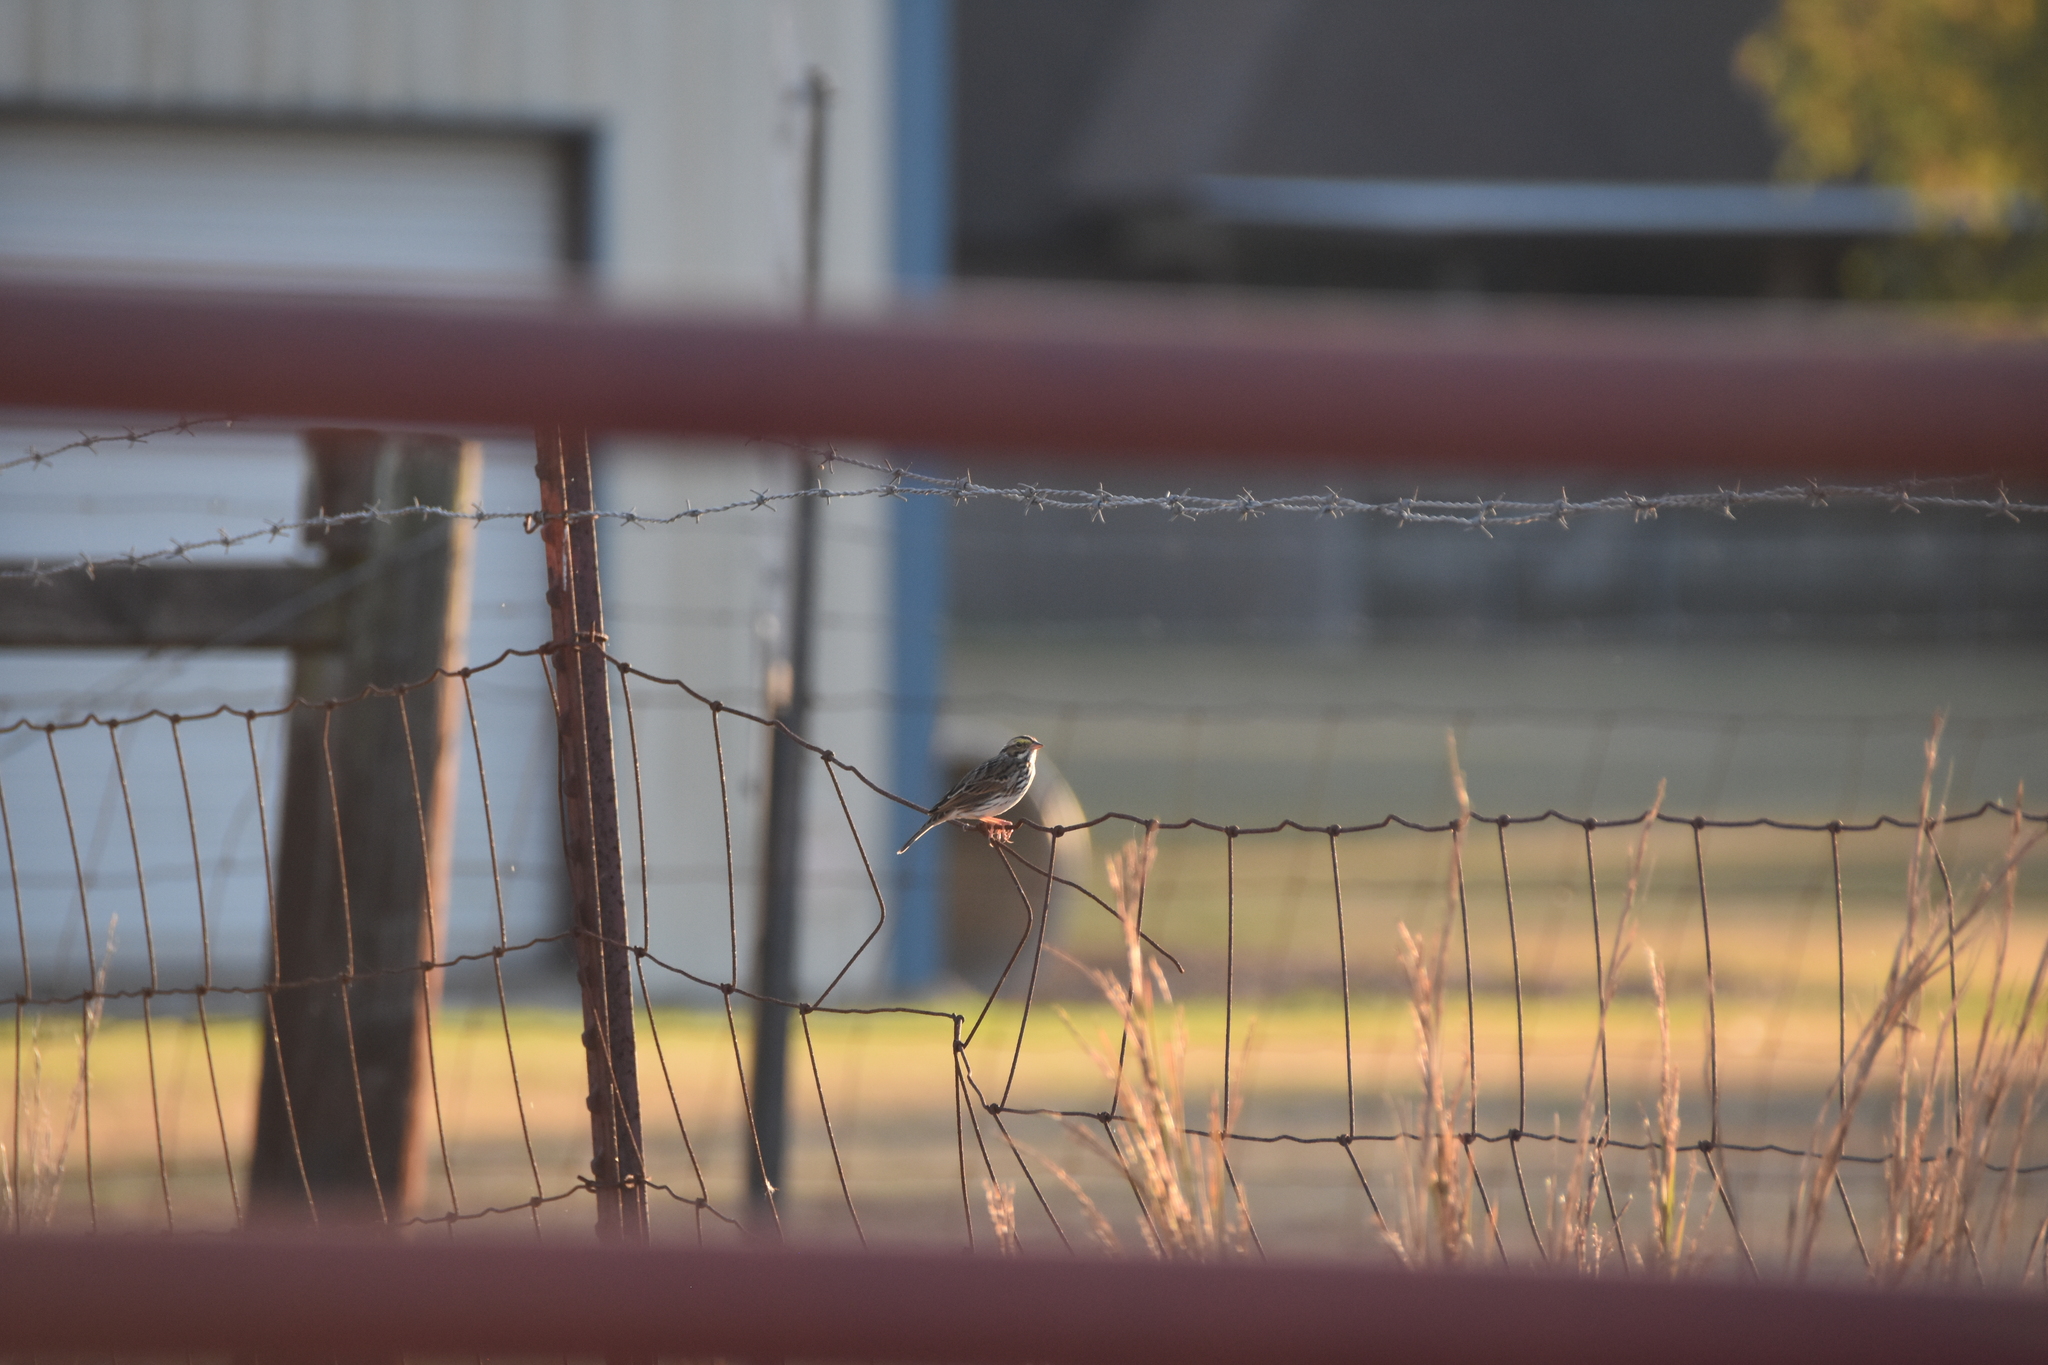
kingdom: Animalia
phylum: Chordata
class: Aves
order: Passeriformes
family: Passerellidae
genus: Passerculus
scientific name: Passerculus sandwichensis
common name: Savannah sparrow
